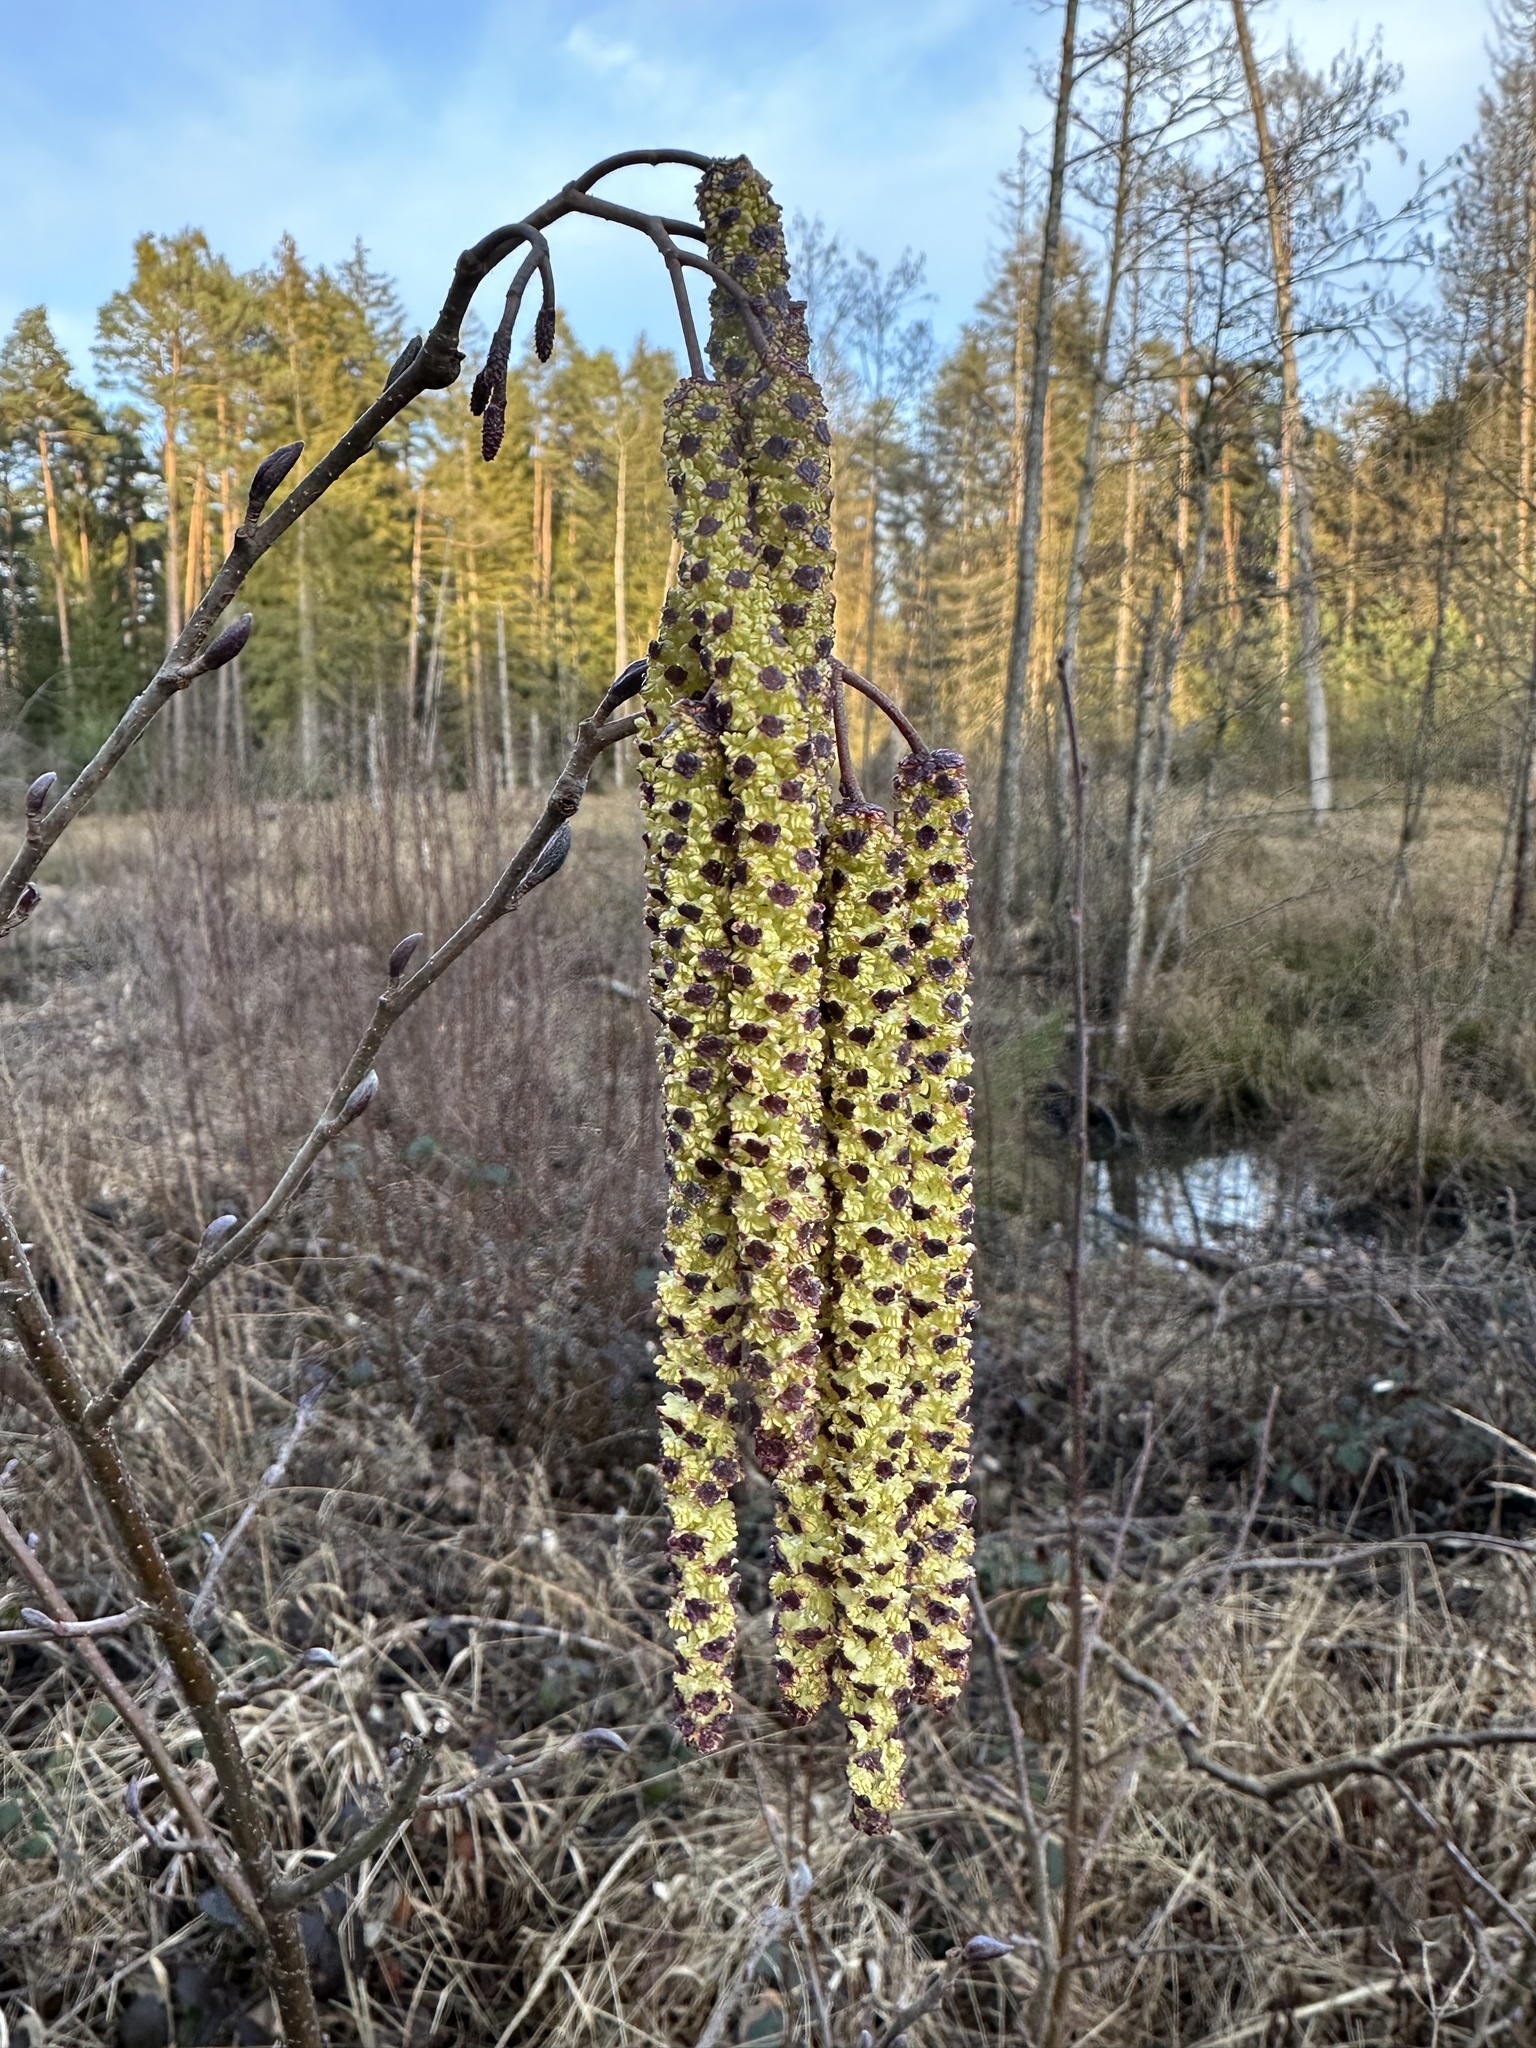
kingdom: Plantae
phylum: Tracheophyta
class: Magnoliopsida
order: Fagales
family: Betulaceae
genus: Alnus
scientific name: Alnus glutinosa
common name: Black alder
